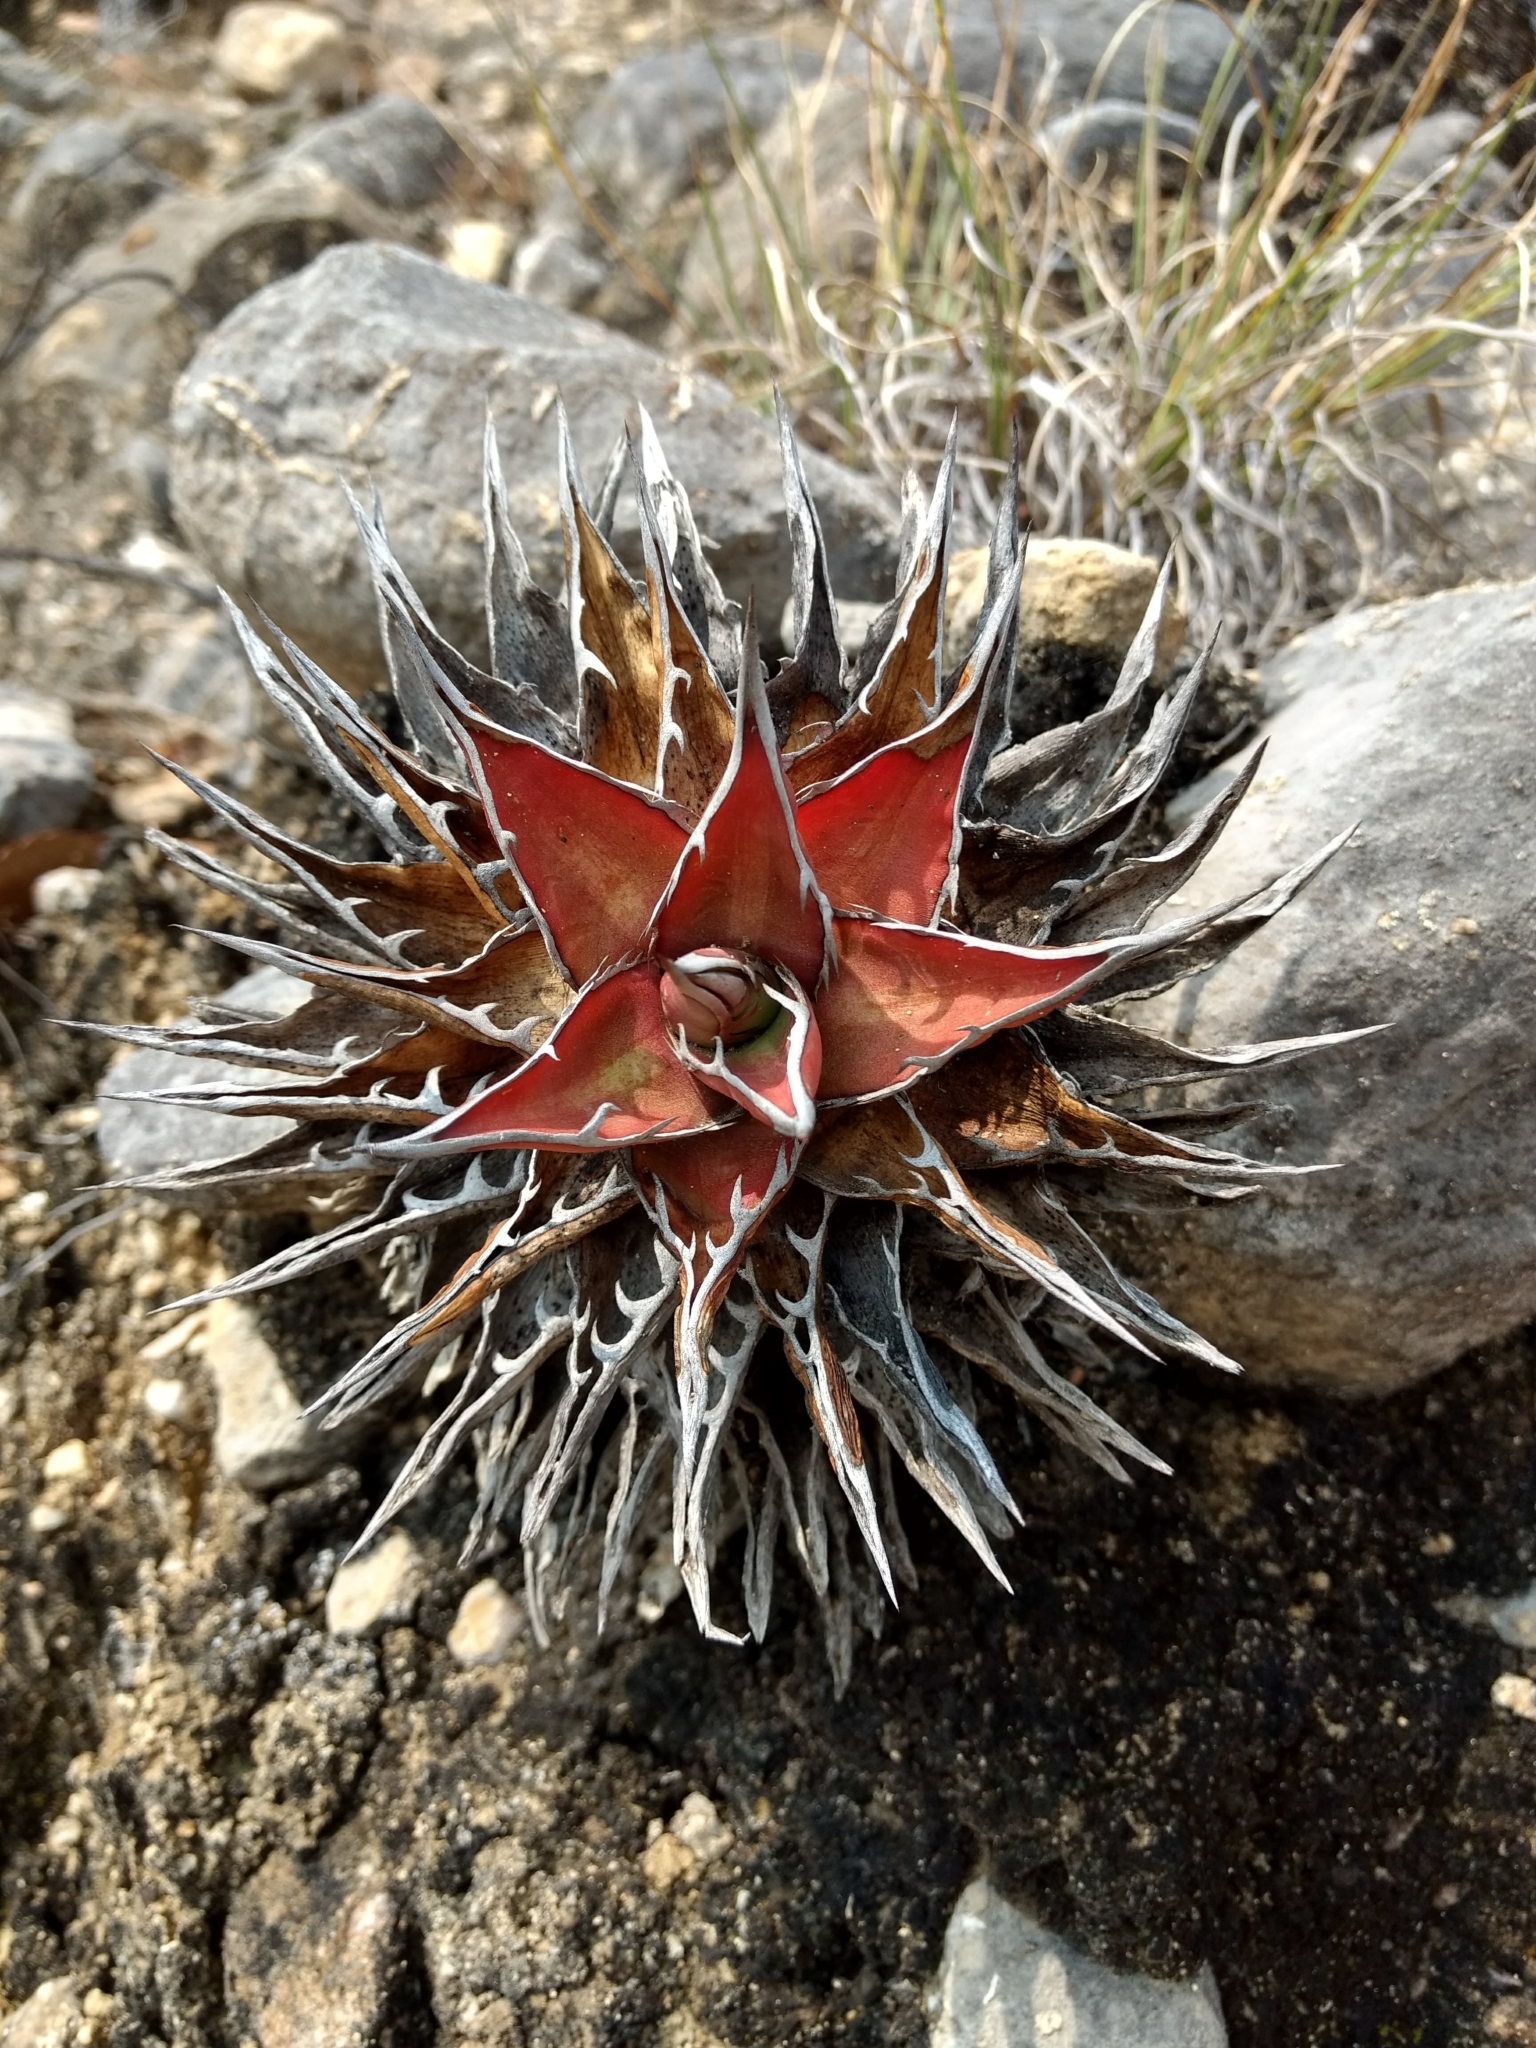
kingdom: Plantae
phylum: Tracheophyta
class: Liliopsida
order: Asparagales
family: Asparagaceae
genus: Agave
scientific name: Agave convallis
